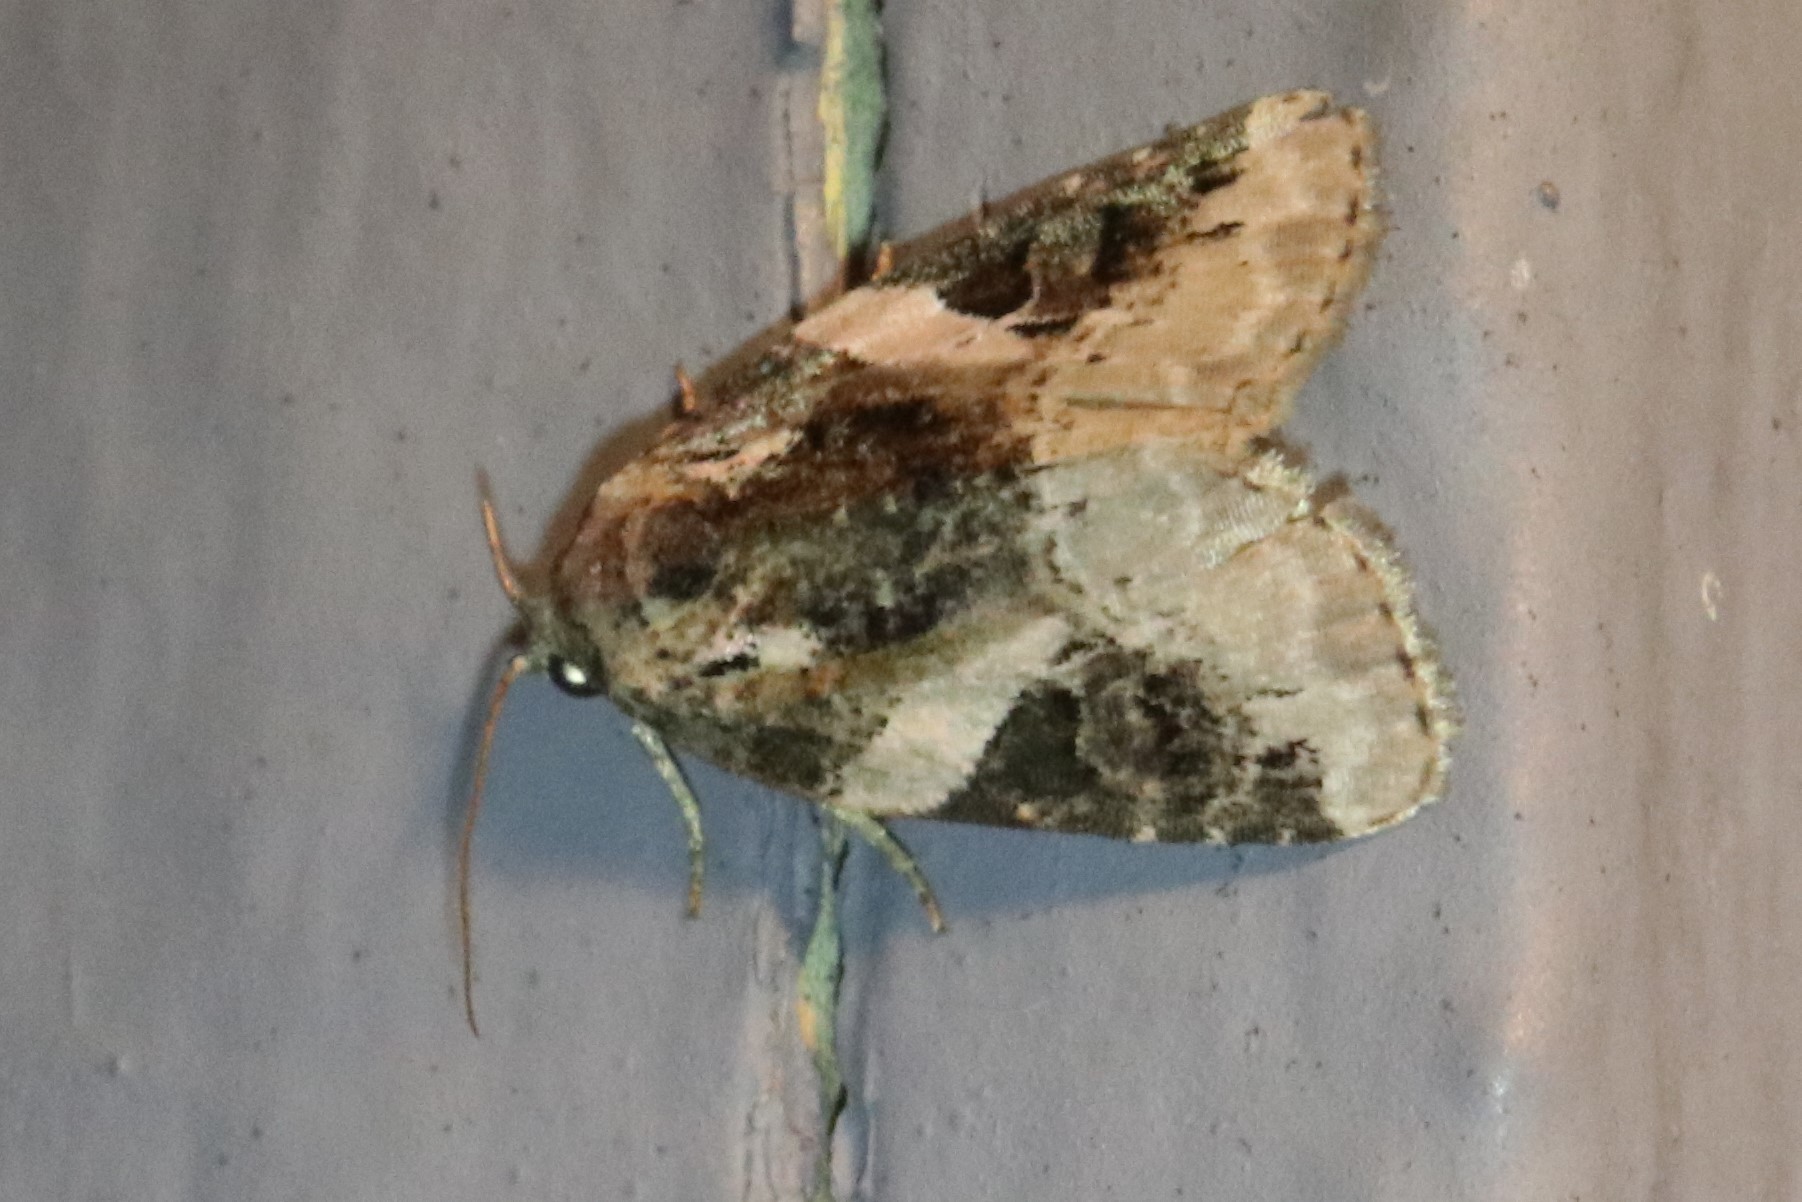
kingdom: Animalia
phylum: Arthropoda
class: Insecta
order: Lepidoptera
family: Noctuidae
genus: Pseudeustrotia
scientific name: Pseudeustrotia carneola
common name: Pink-barred lithacodia moth
